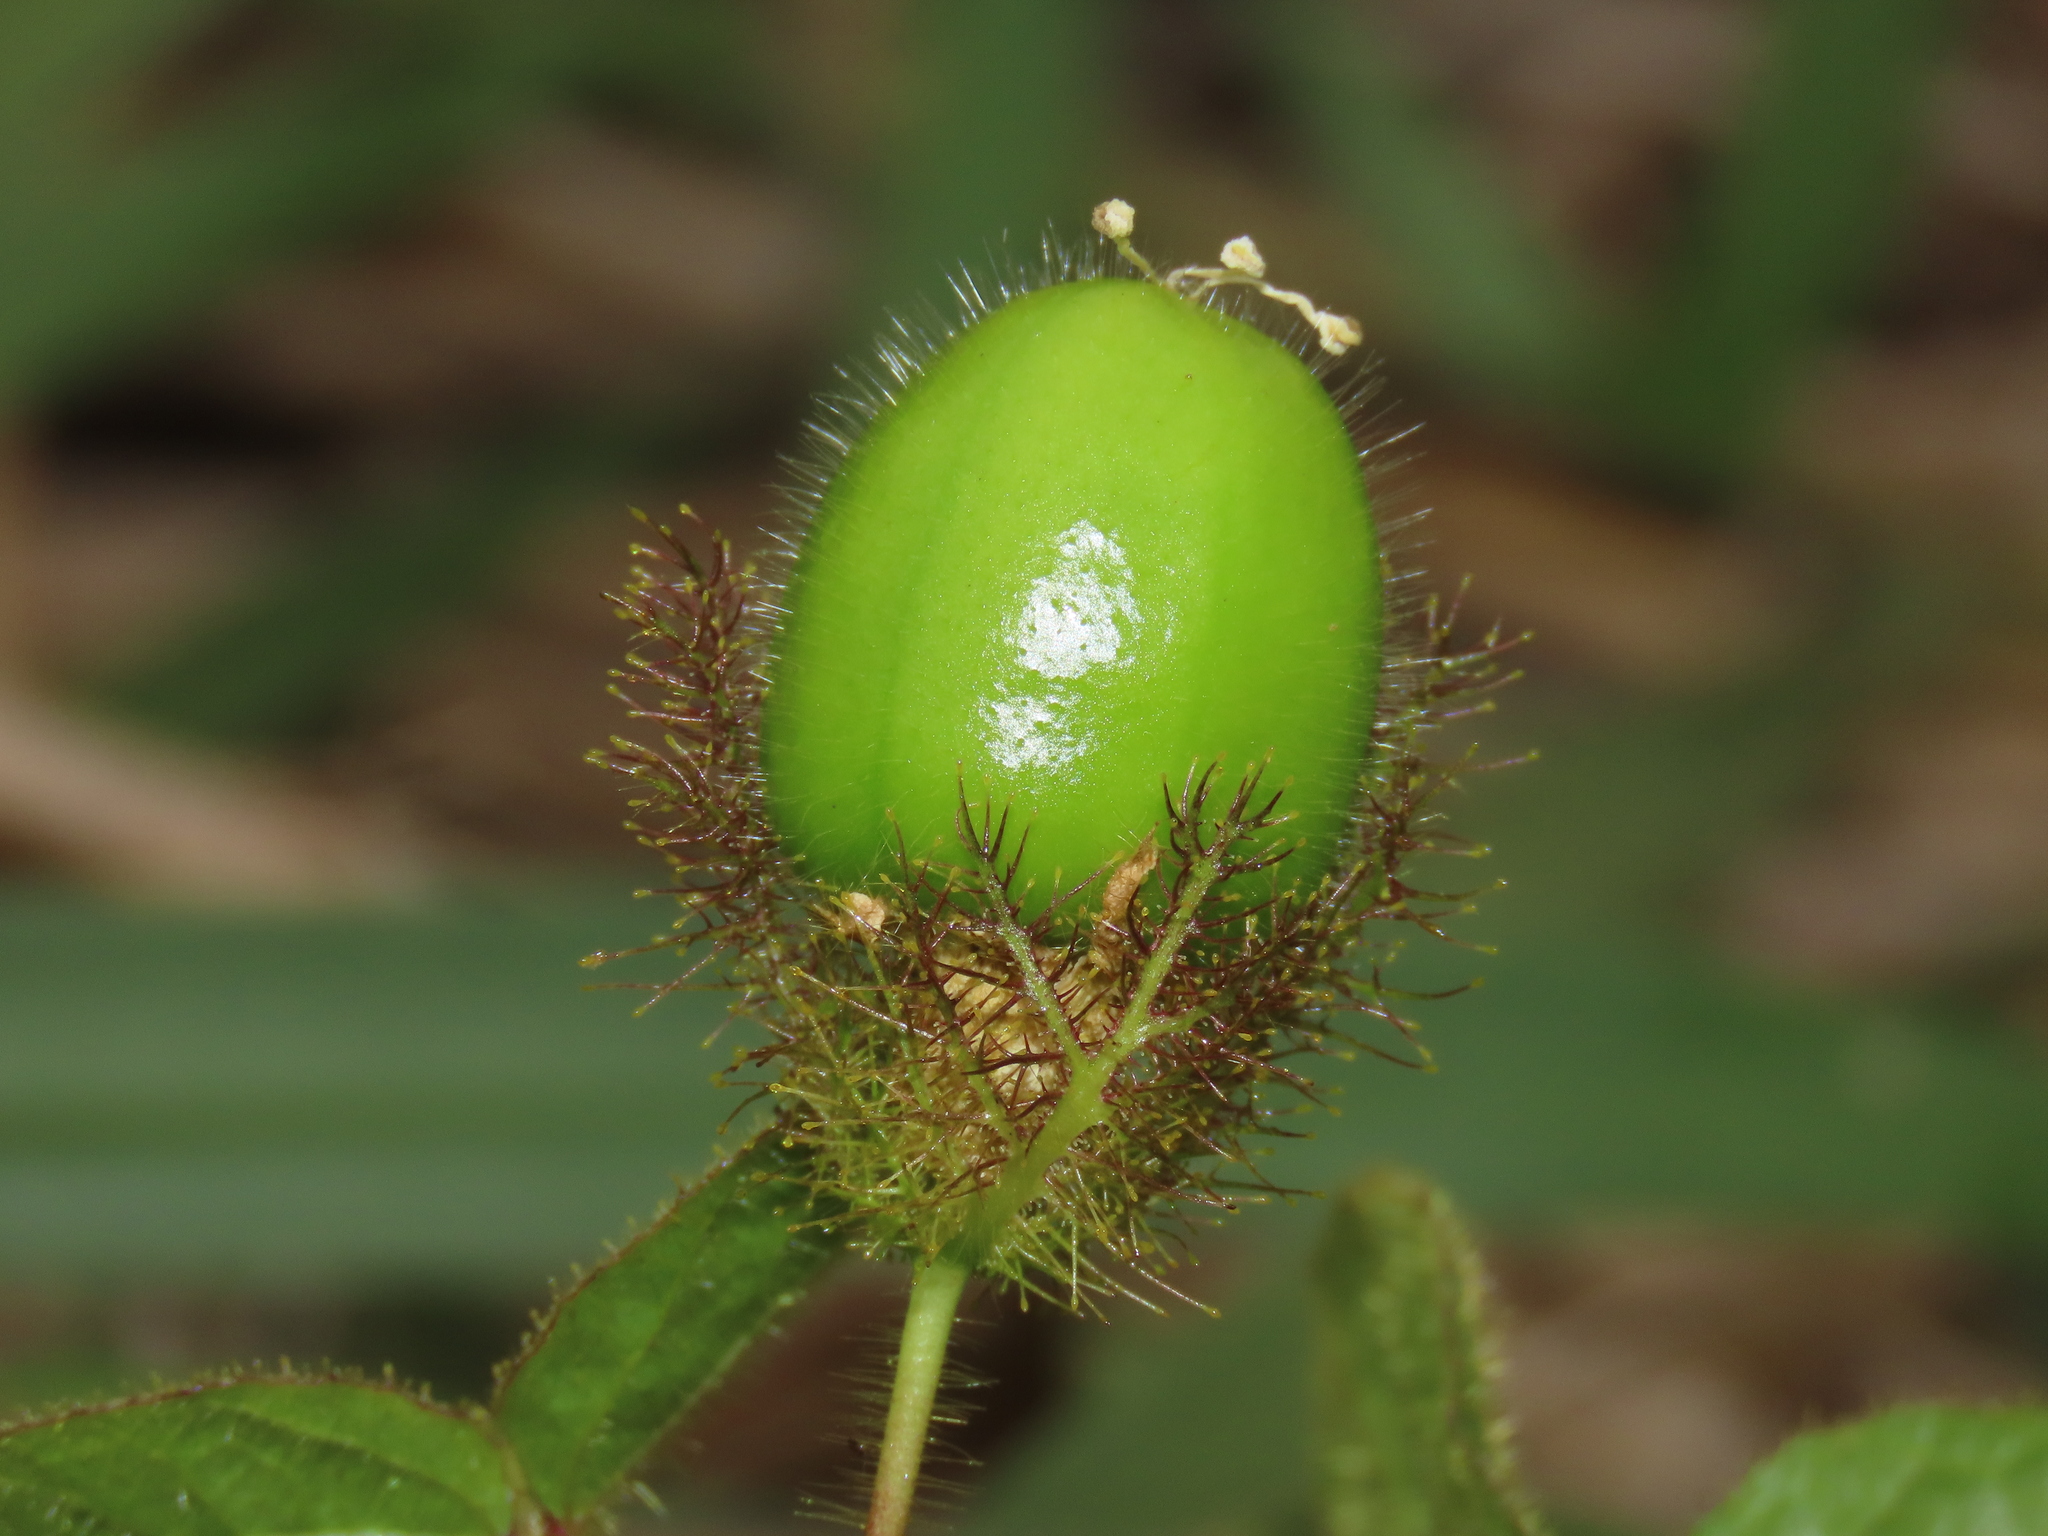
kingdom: Plantae
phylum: Tracheophyta
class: Magnoliopsida
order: Malpighiales
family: Passifloraceae
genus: Passiflora
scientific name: Passiflora foetida
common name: Fetid passionflower
